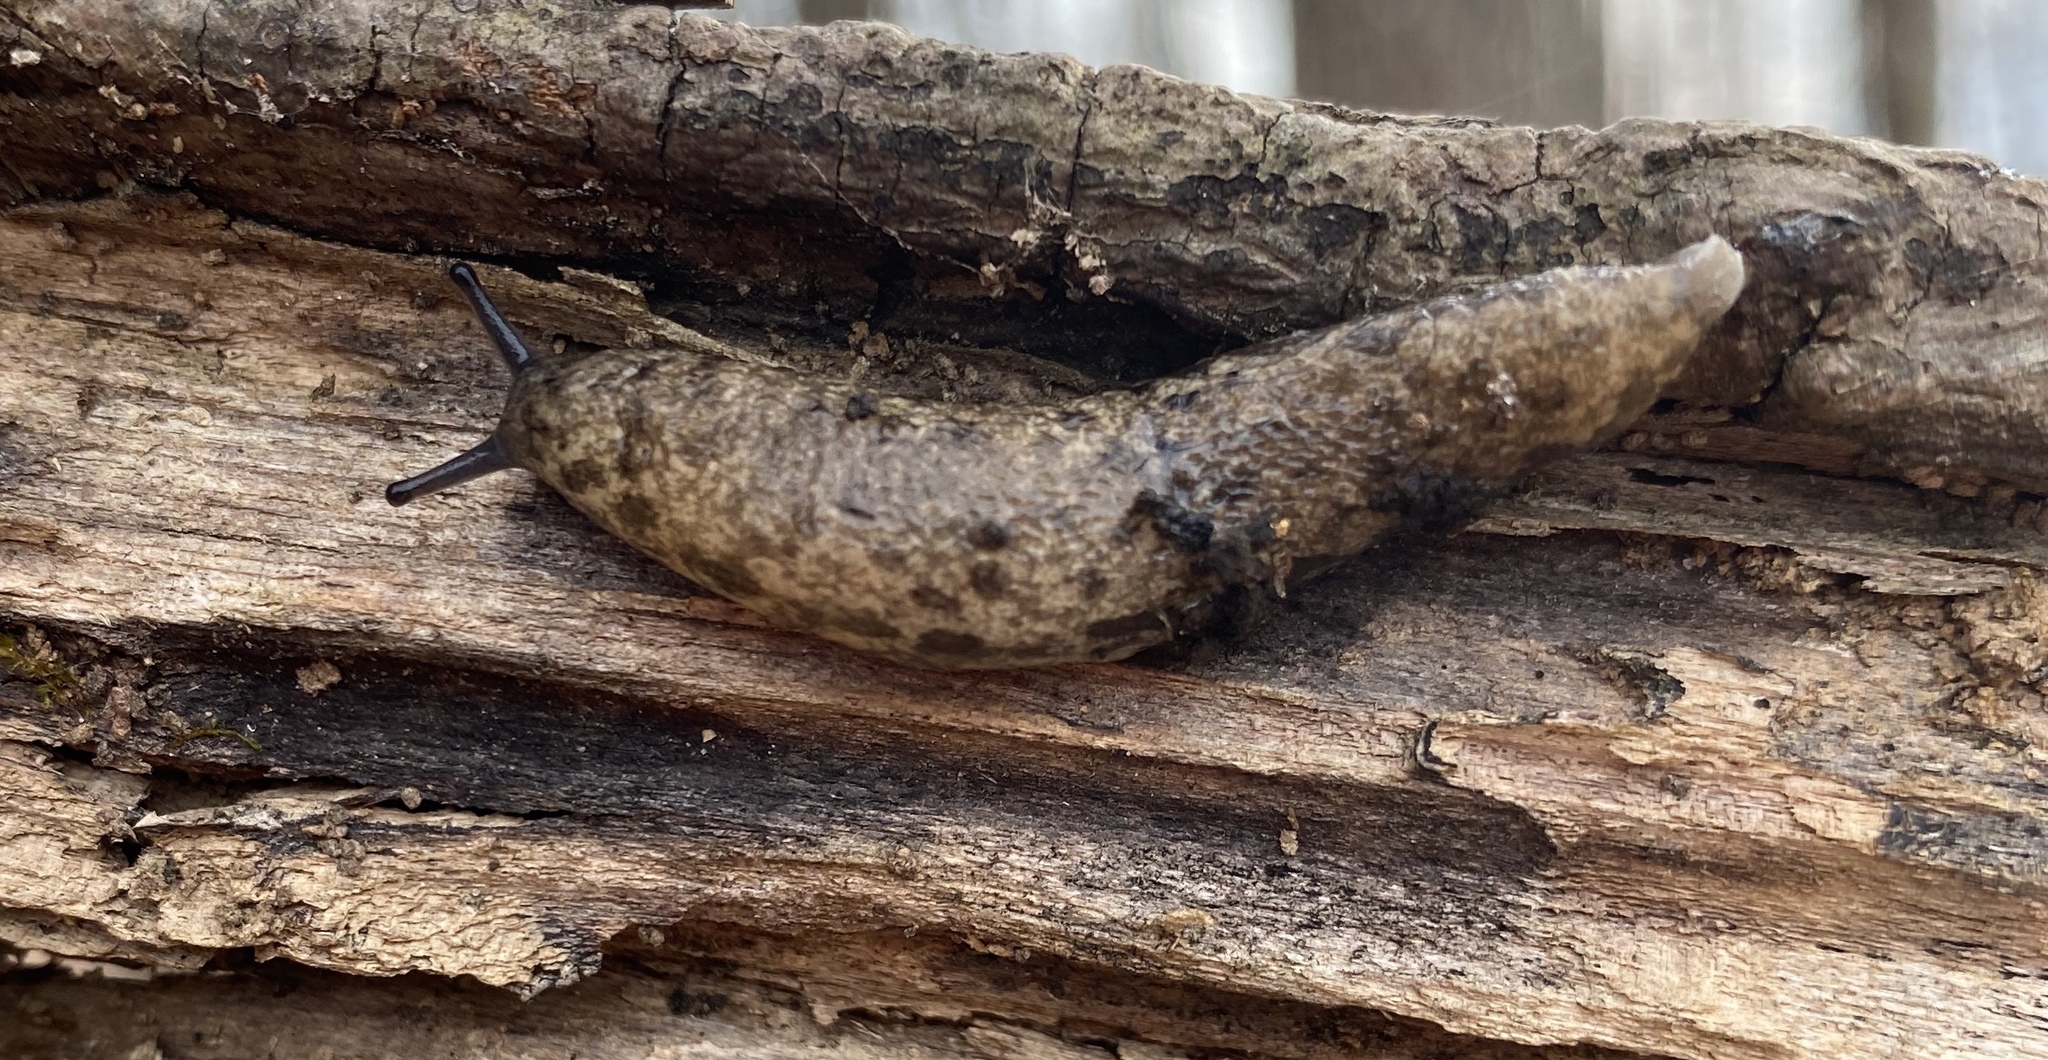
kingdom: Animalia
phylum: Mollusca
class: Gastropoda
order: Stylommatophora
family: Philomycidae
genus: Megapallifera
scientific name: Megapallifera mutabilis
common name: Changeable mantleslug
